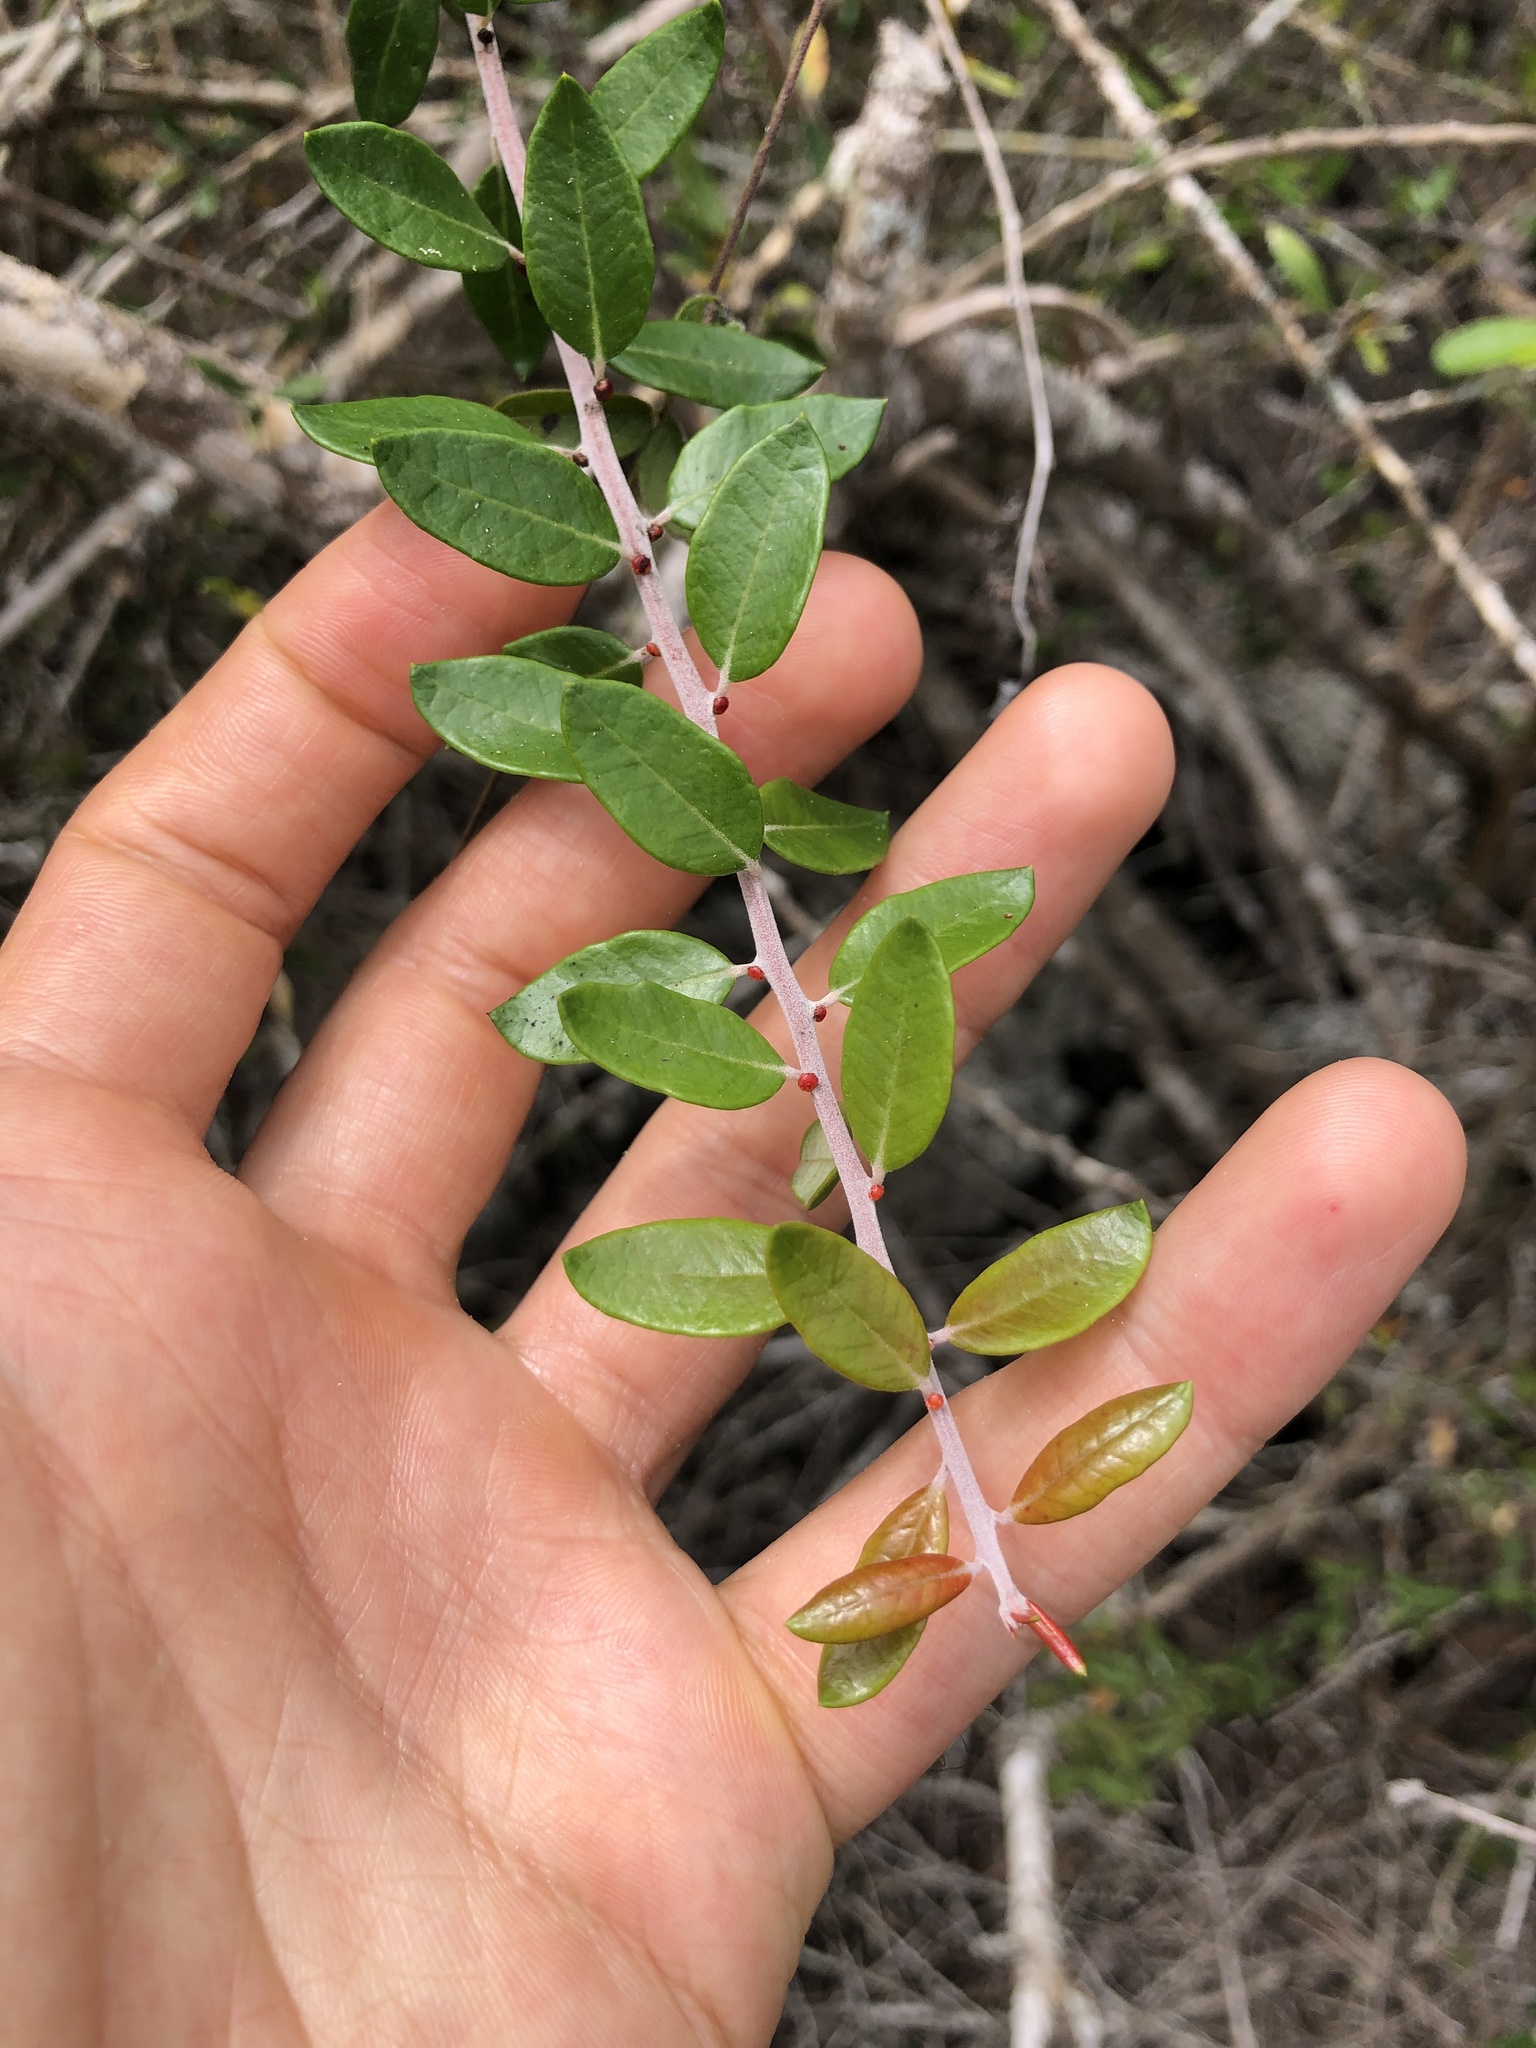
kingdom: Plantae
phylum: Tracheophyta
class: Magnoliopsida
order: Sapindales
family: Simaroubaceae
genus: Castela
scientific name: Castela galapageia
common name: Bitterbush
